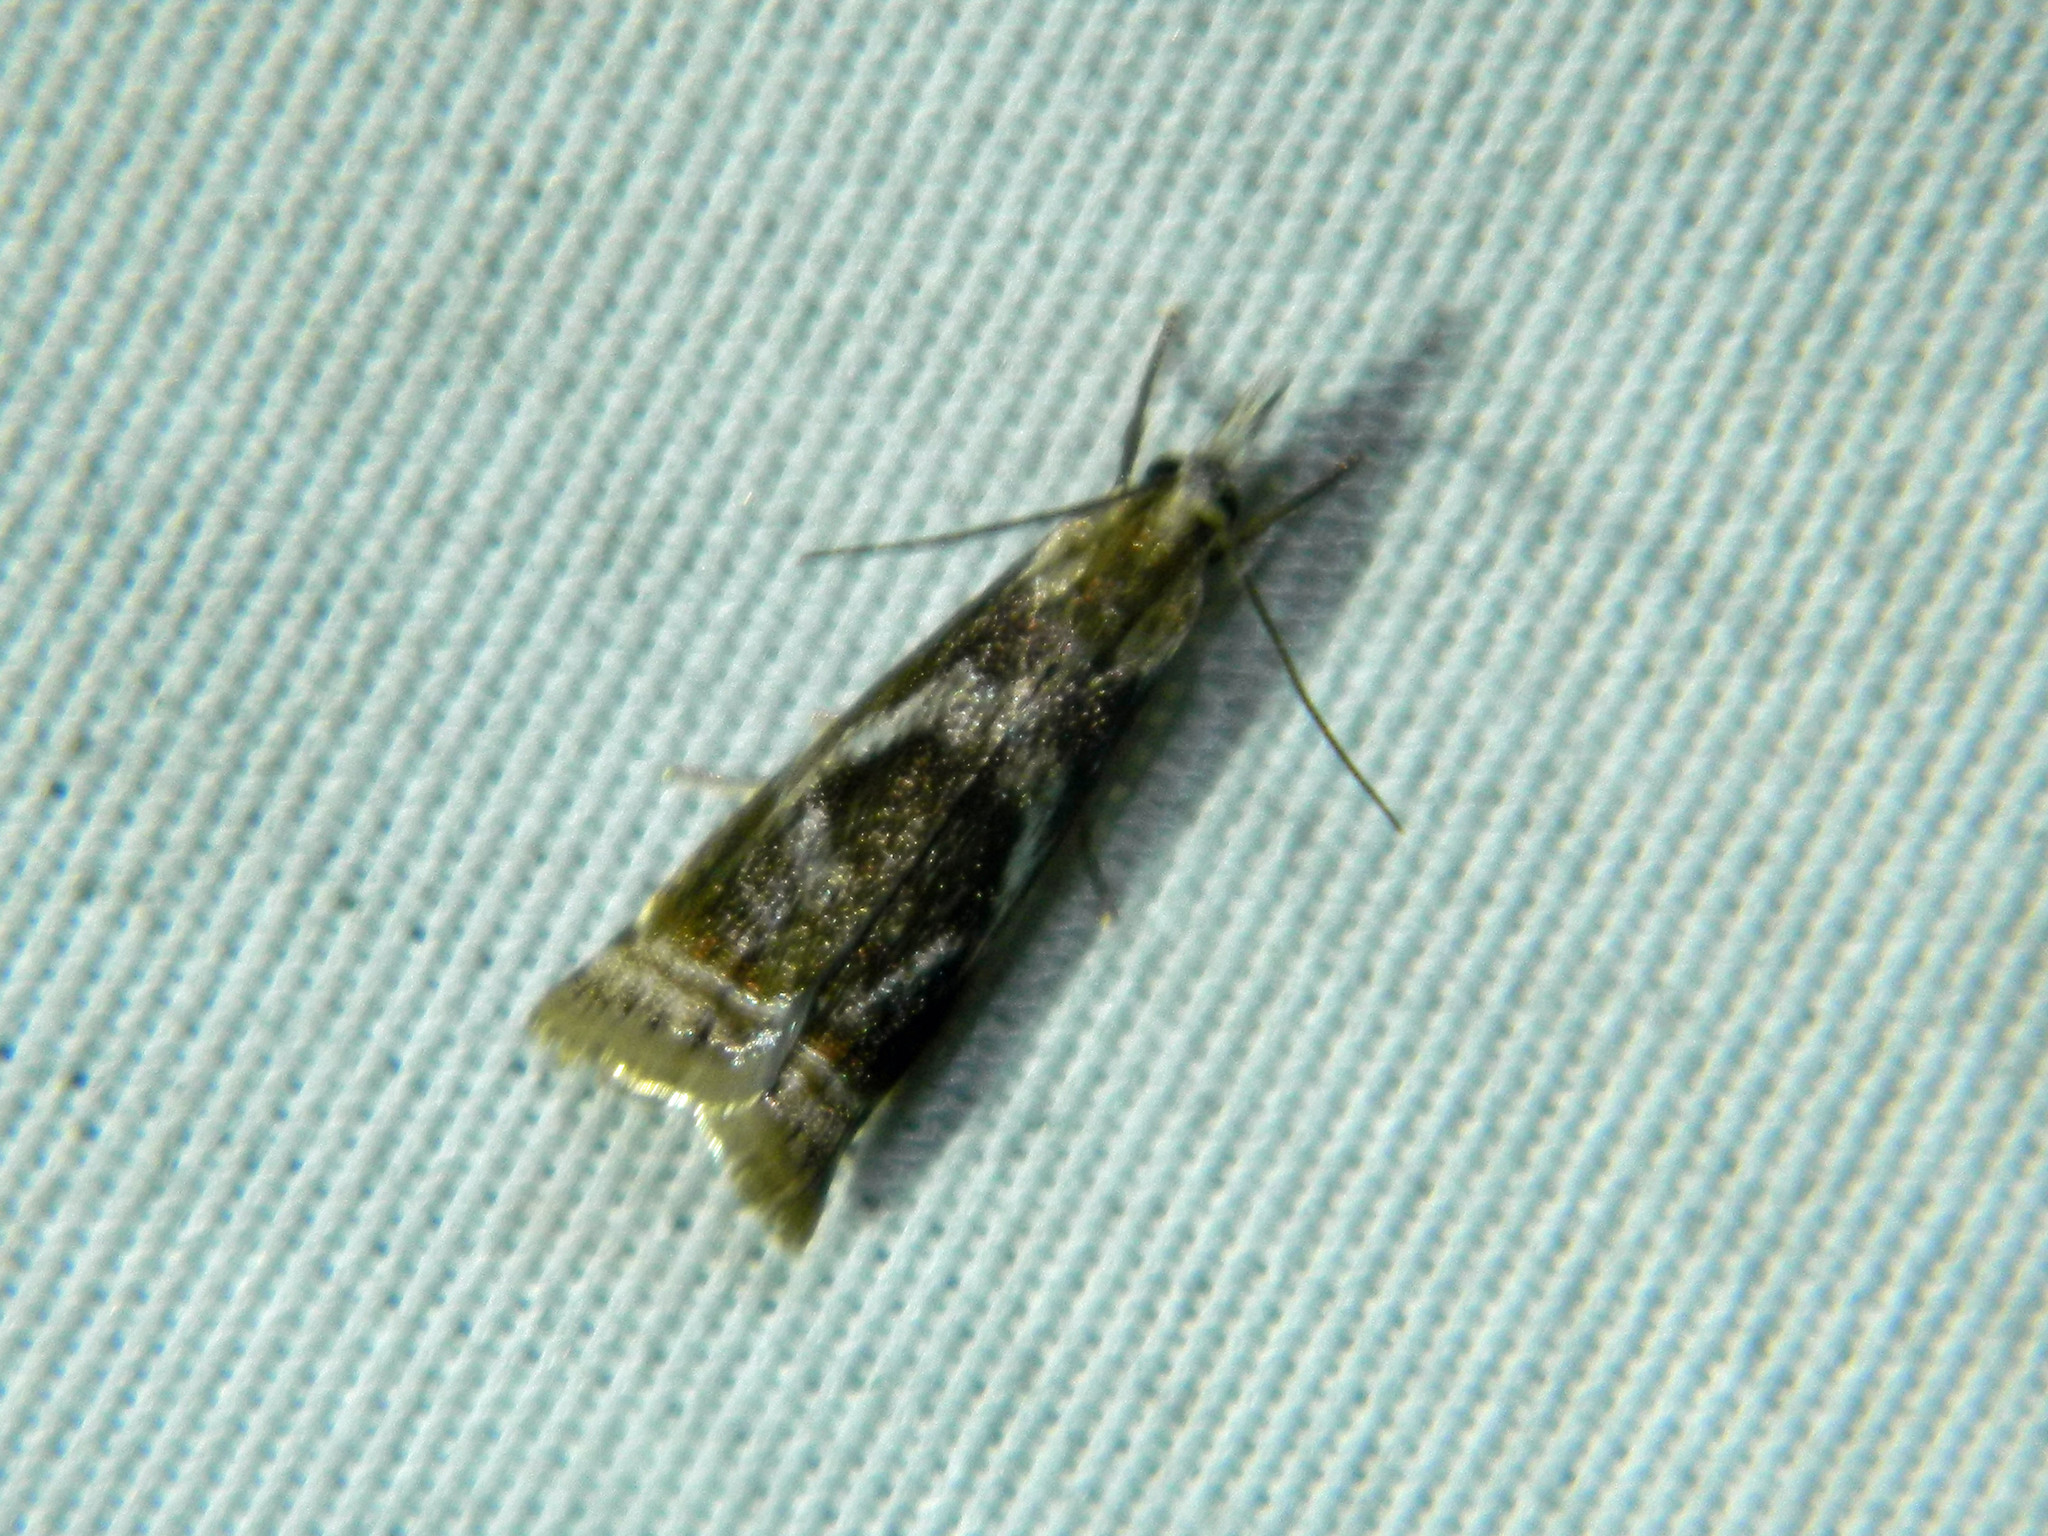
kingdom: Animalia
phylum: Arthropoda
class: Insecta
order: Lepidoptera
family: Crambidae
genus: Microcrambus
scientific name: Microcrambus elegans
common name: Elegant grass-veneer
